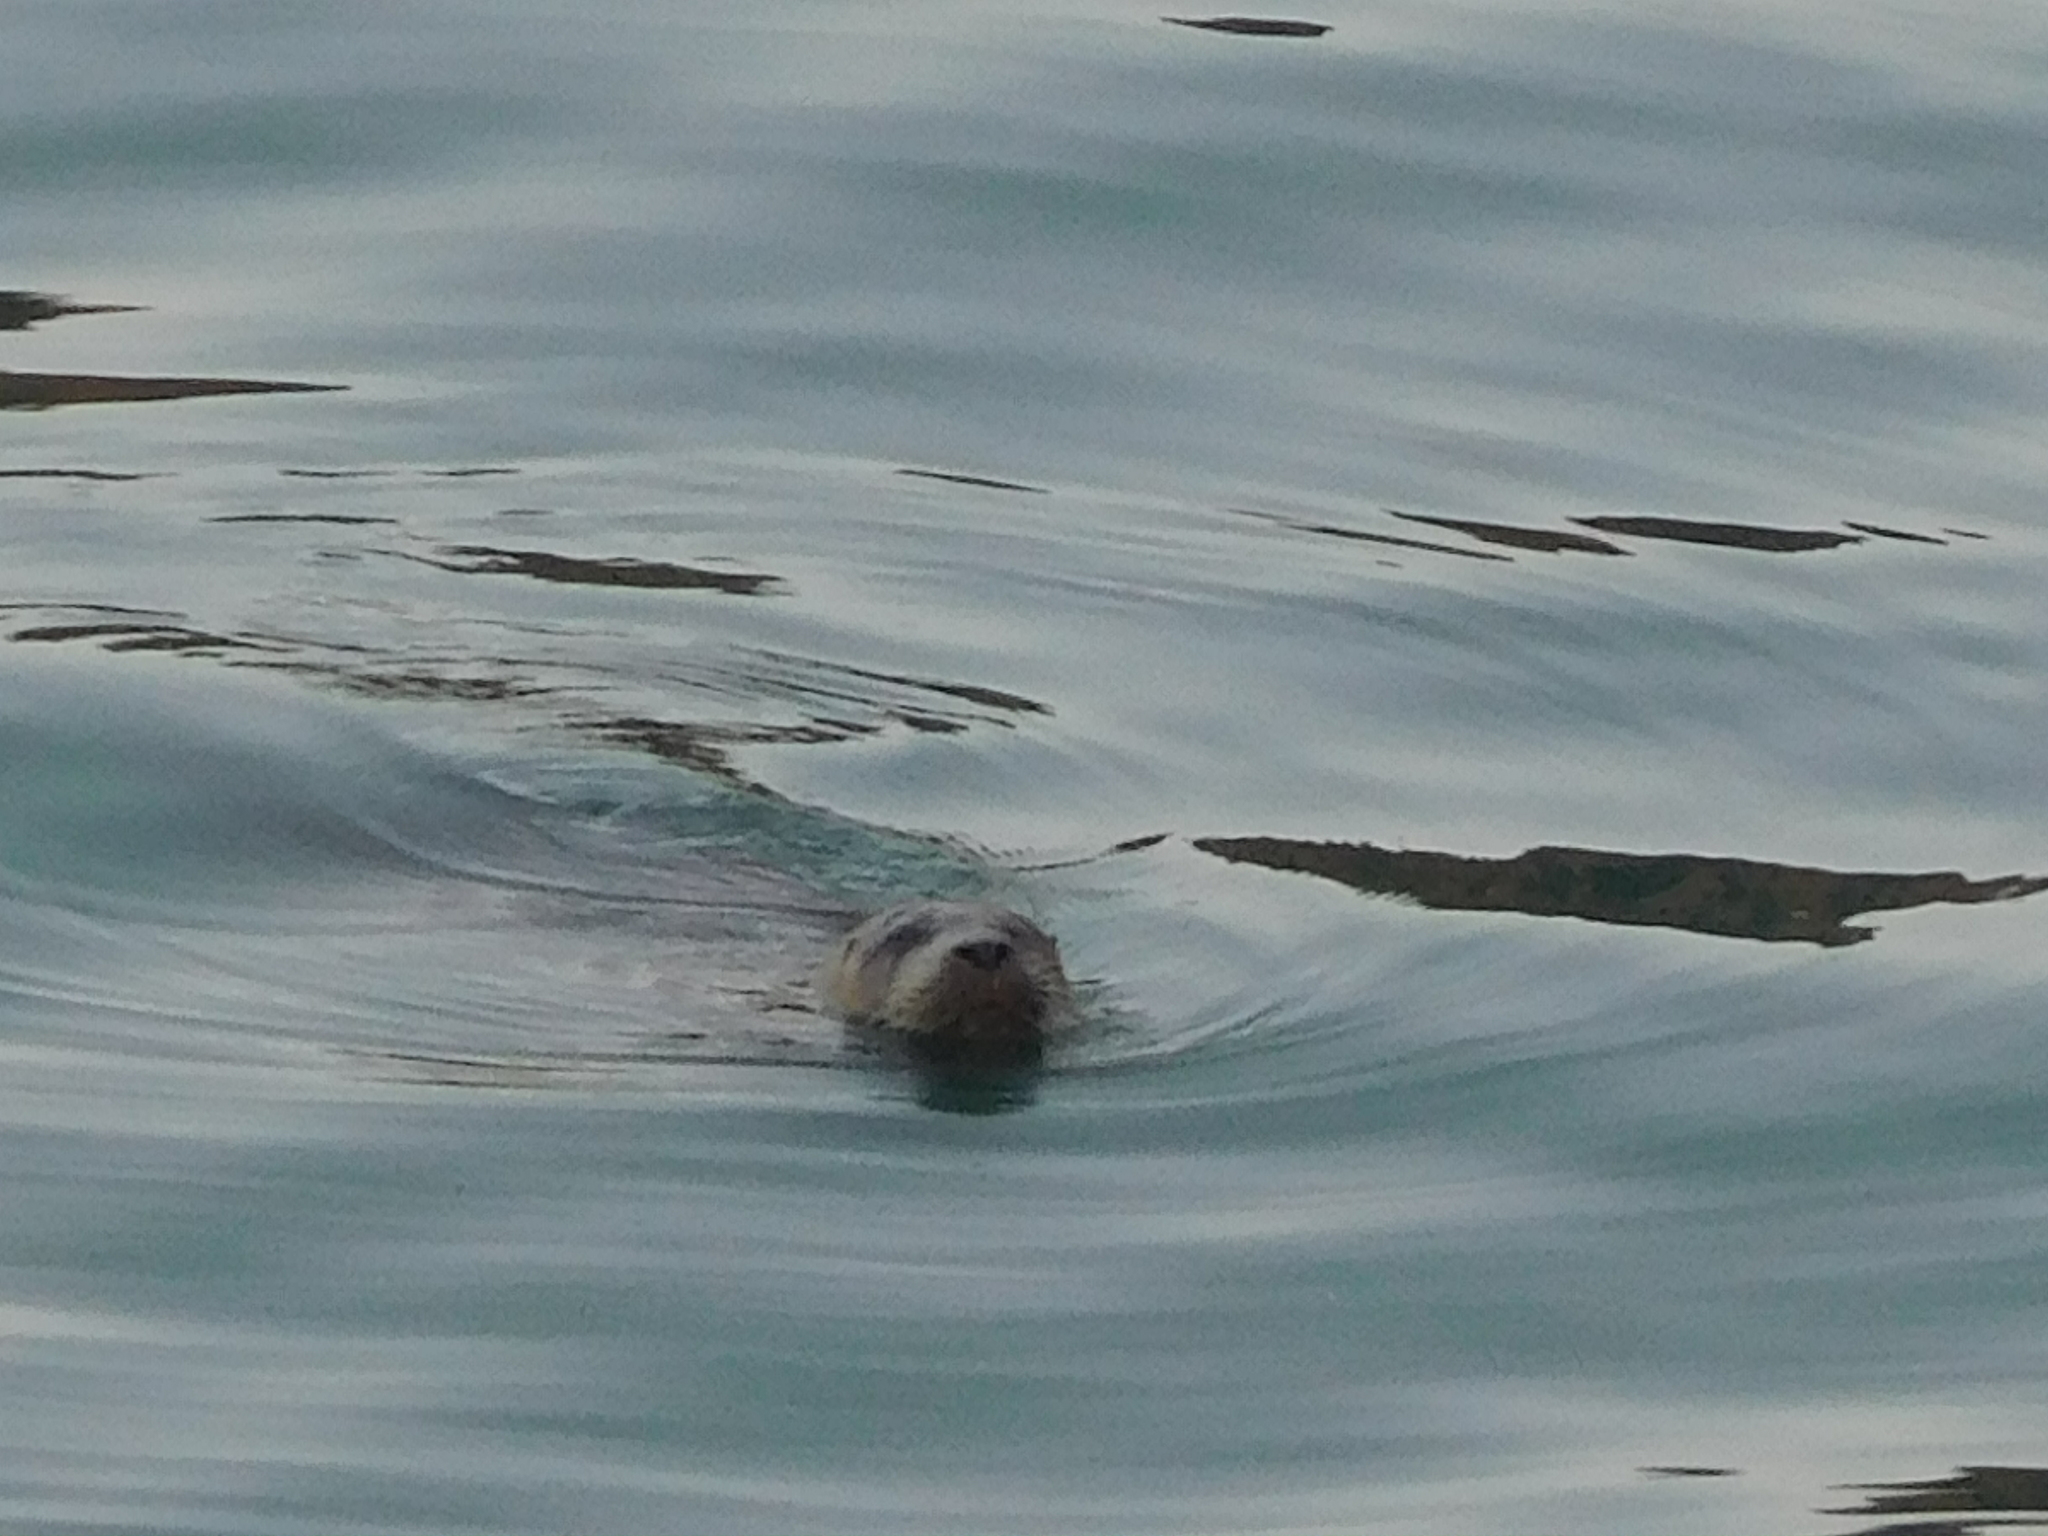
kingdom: Animalia
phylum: Chordata
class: Mammalia
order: Carnivora
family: Phocidae
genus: Phoca
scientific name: Phoca vitulina
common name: Harbor seal
